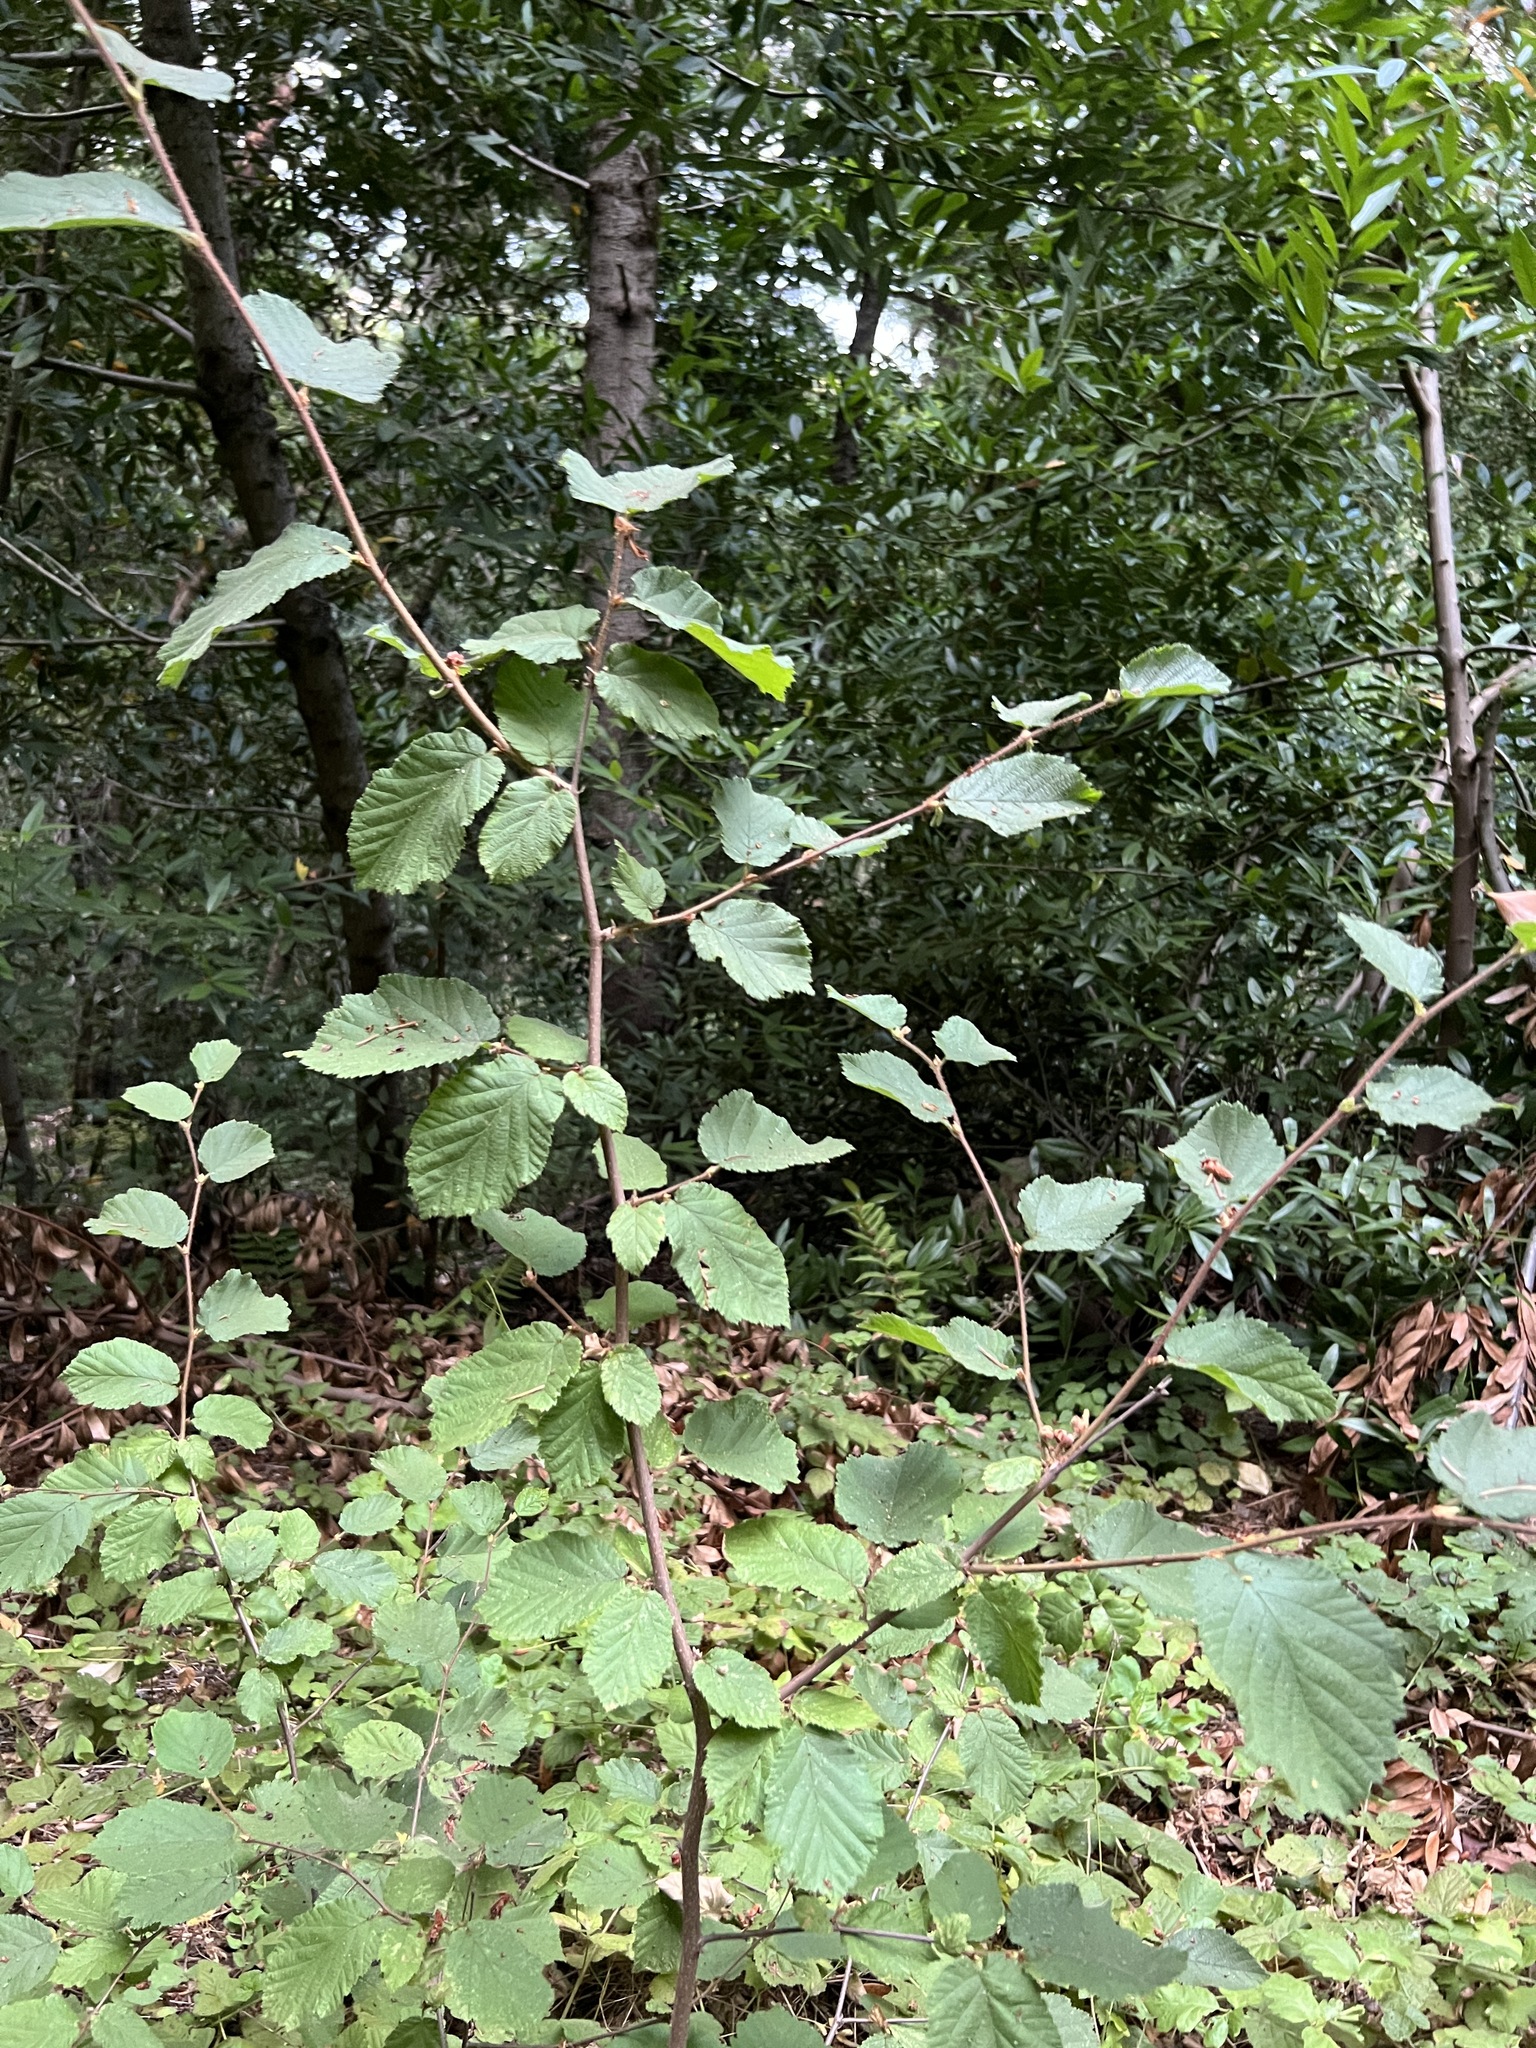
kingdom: Plantae
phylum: Tracheophyta
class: Magnoliopsida
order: Fagales
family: Betulaceae
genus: Corylus
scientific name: Corylus cornuta
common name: Beaked hazel
